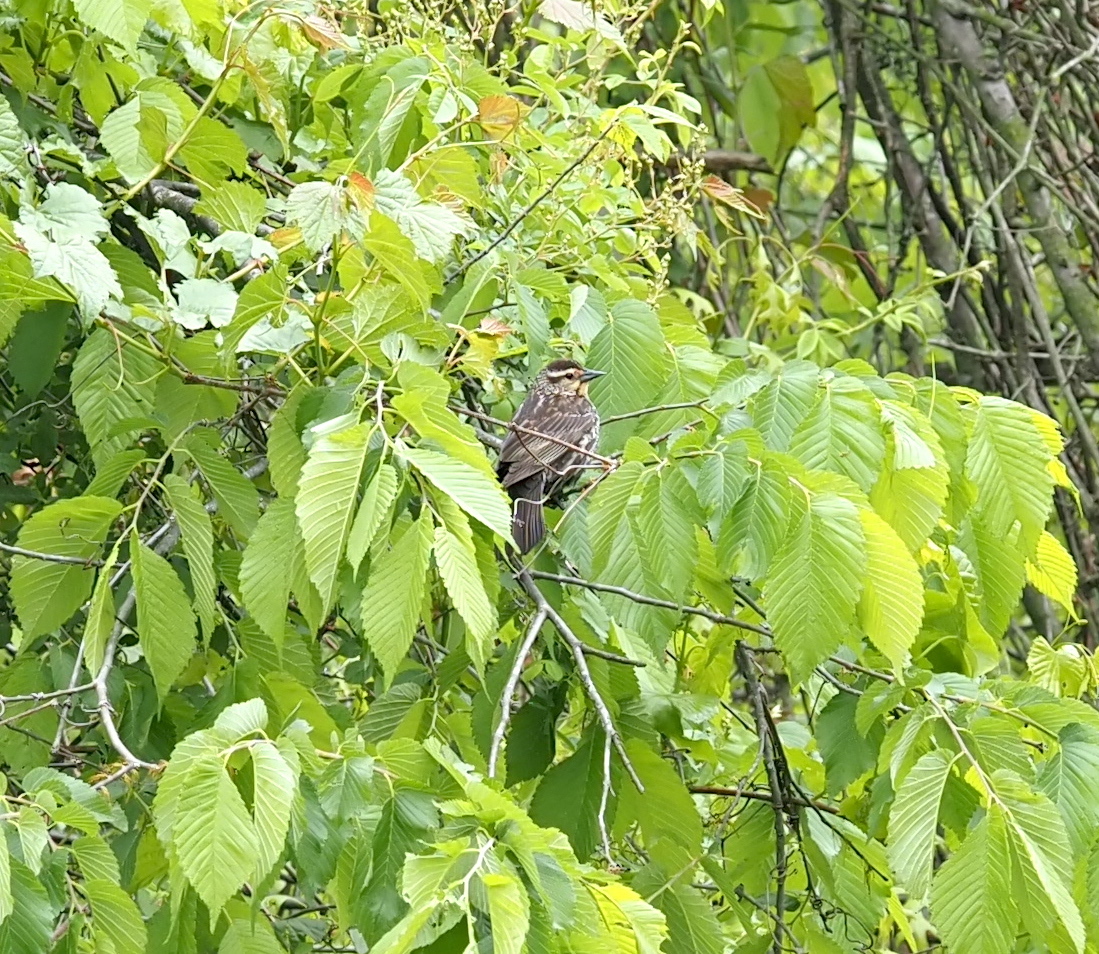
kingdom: Animalia
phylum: Chordata
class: Aves
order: Passeriformes
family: Icteridae
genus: Agelaius
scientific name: Agelaius phoeniceus
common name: Red-winged blackbird
